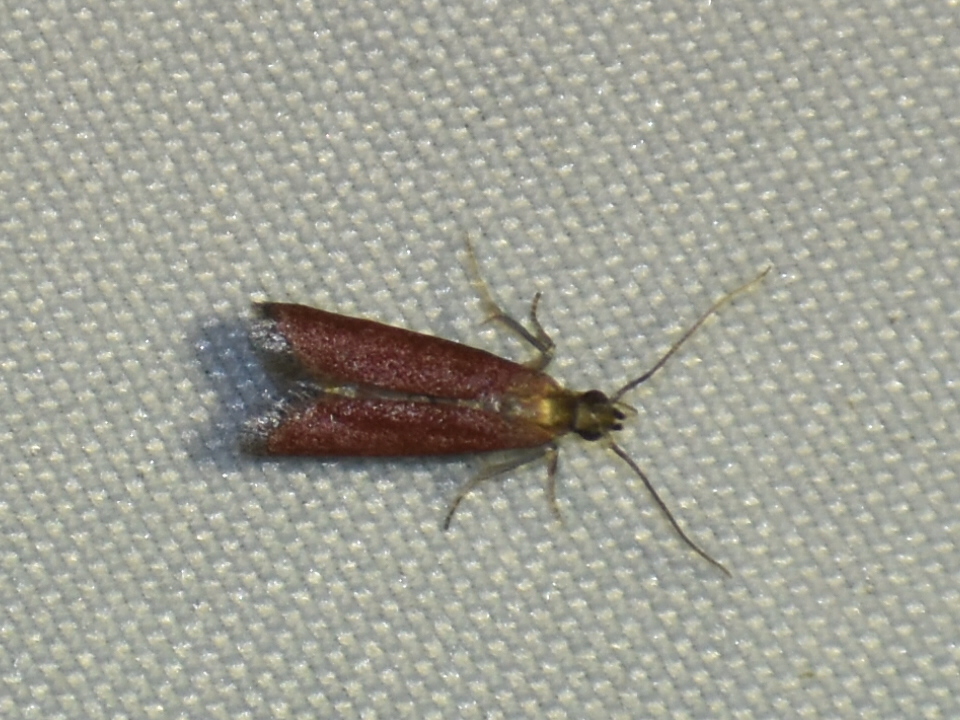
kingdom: Animalia
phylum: Arthropoda
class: Insecta
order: Lepidoptera
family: Pyralidae
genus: Varneria
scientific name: Varneria postremella
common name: Rusty varneria moth
